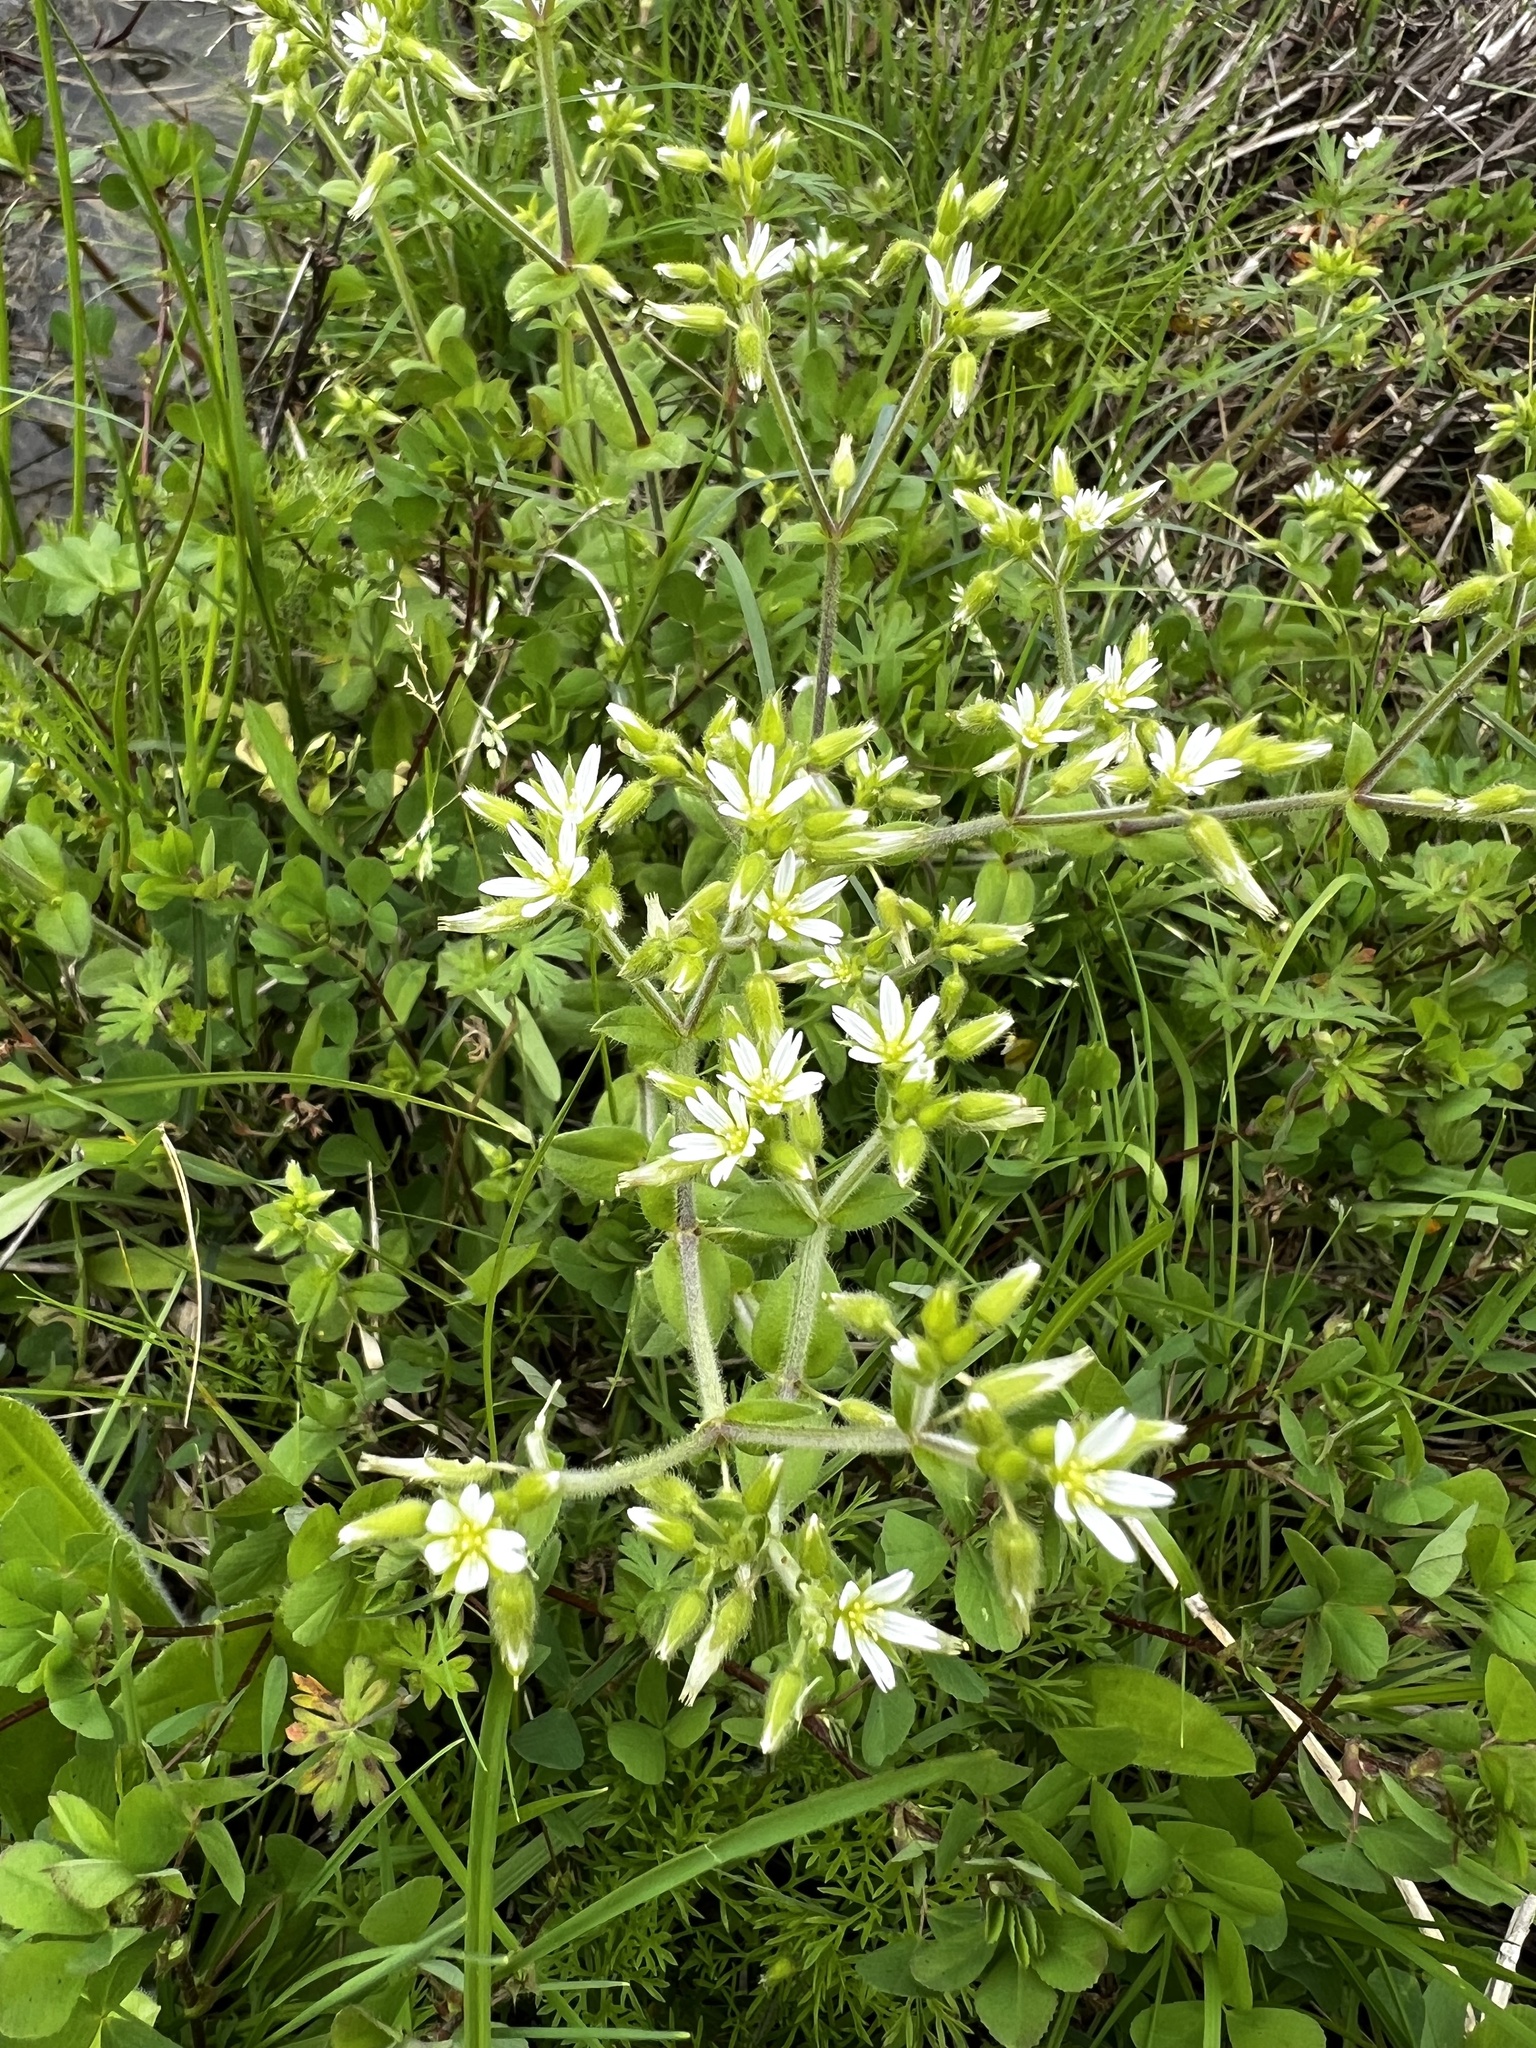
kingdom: Plantae
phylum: Tracheophyta
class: Magnoliopsida
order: Caryophyllales
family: Caryophyllaceae
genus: Cerastium
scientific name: Cerastium glomeratum
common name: Sticky chickweed
